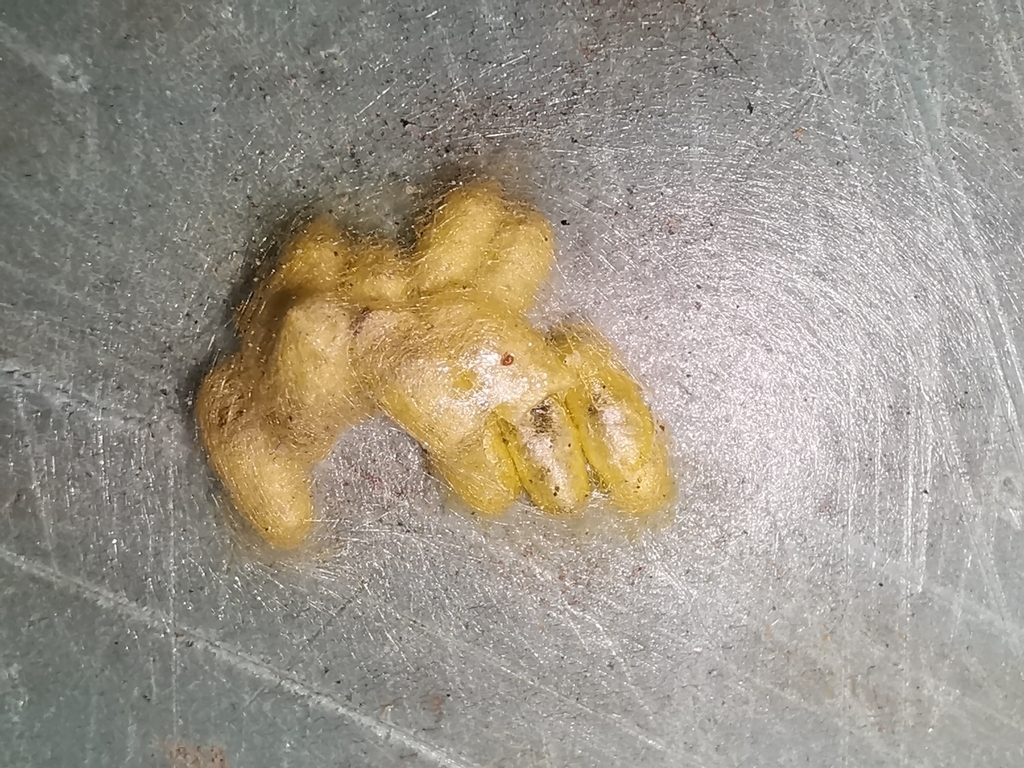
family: Polydnaviriformidae
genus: Bracoviriform
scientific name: Bracoviriform glomeratae
